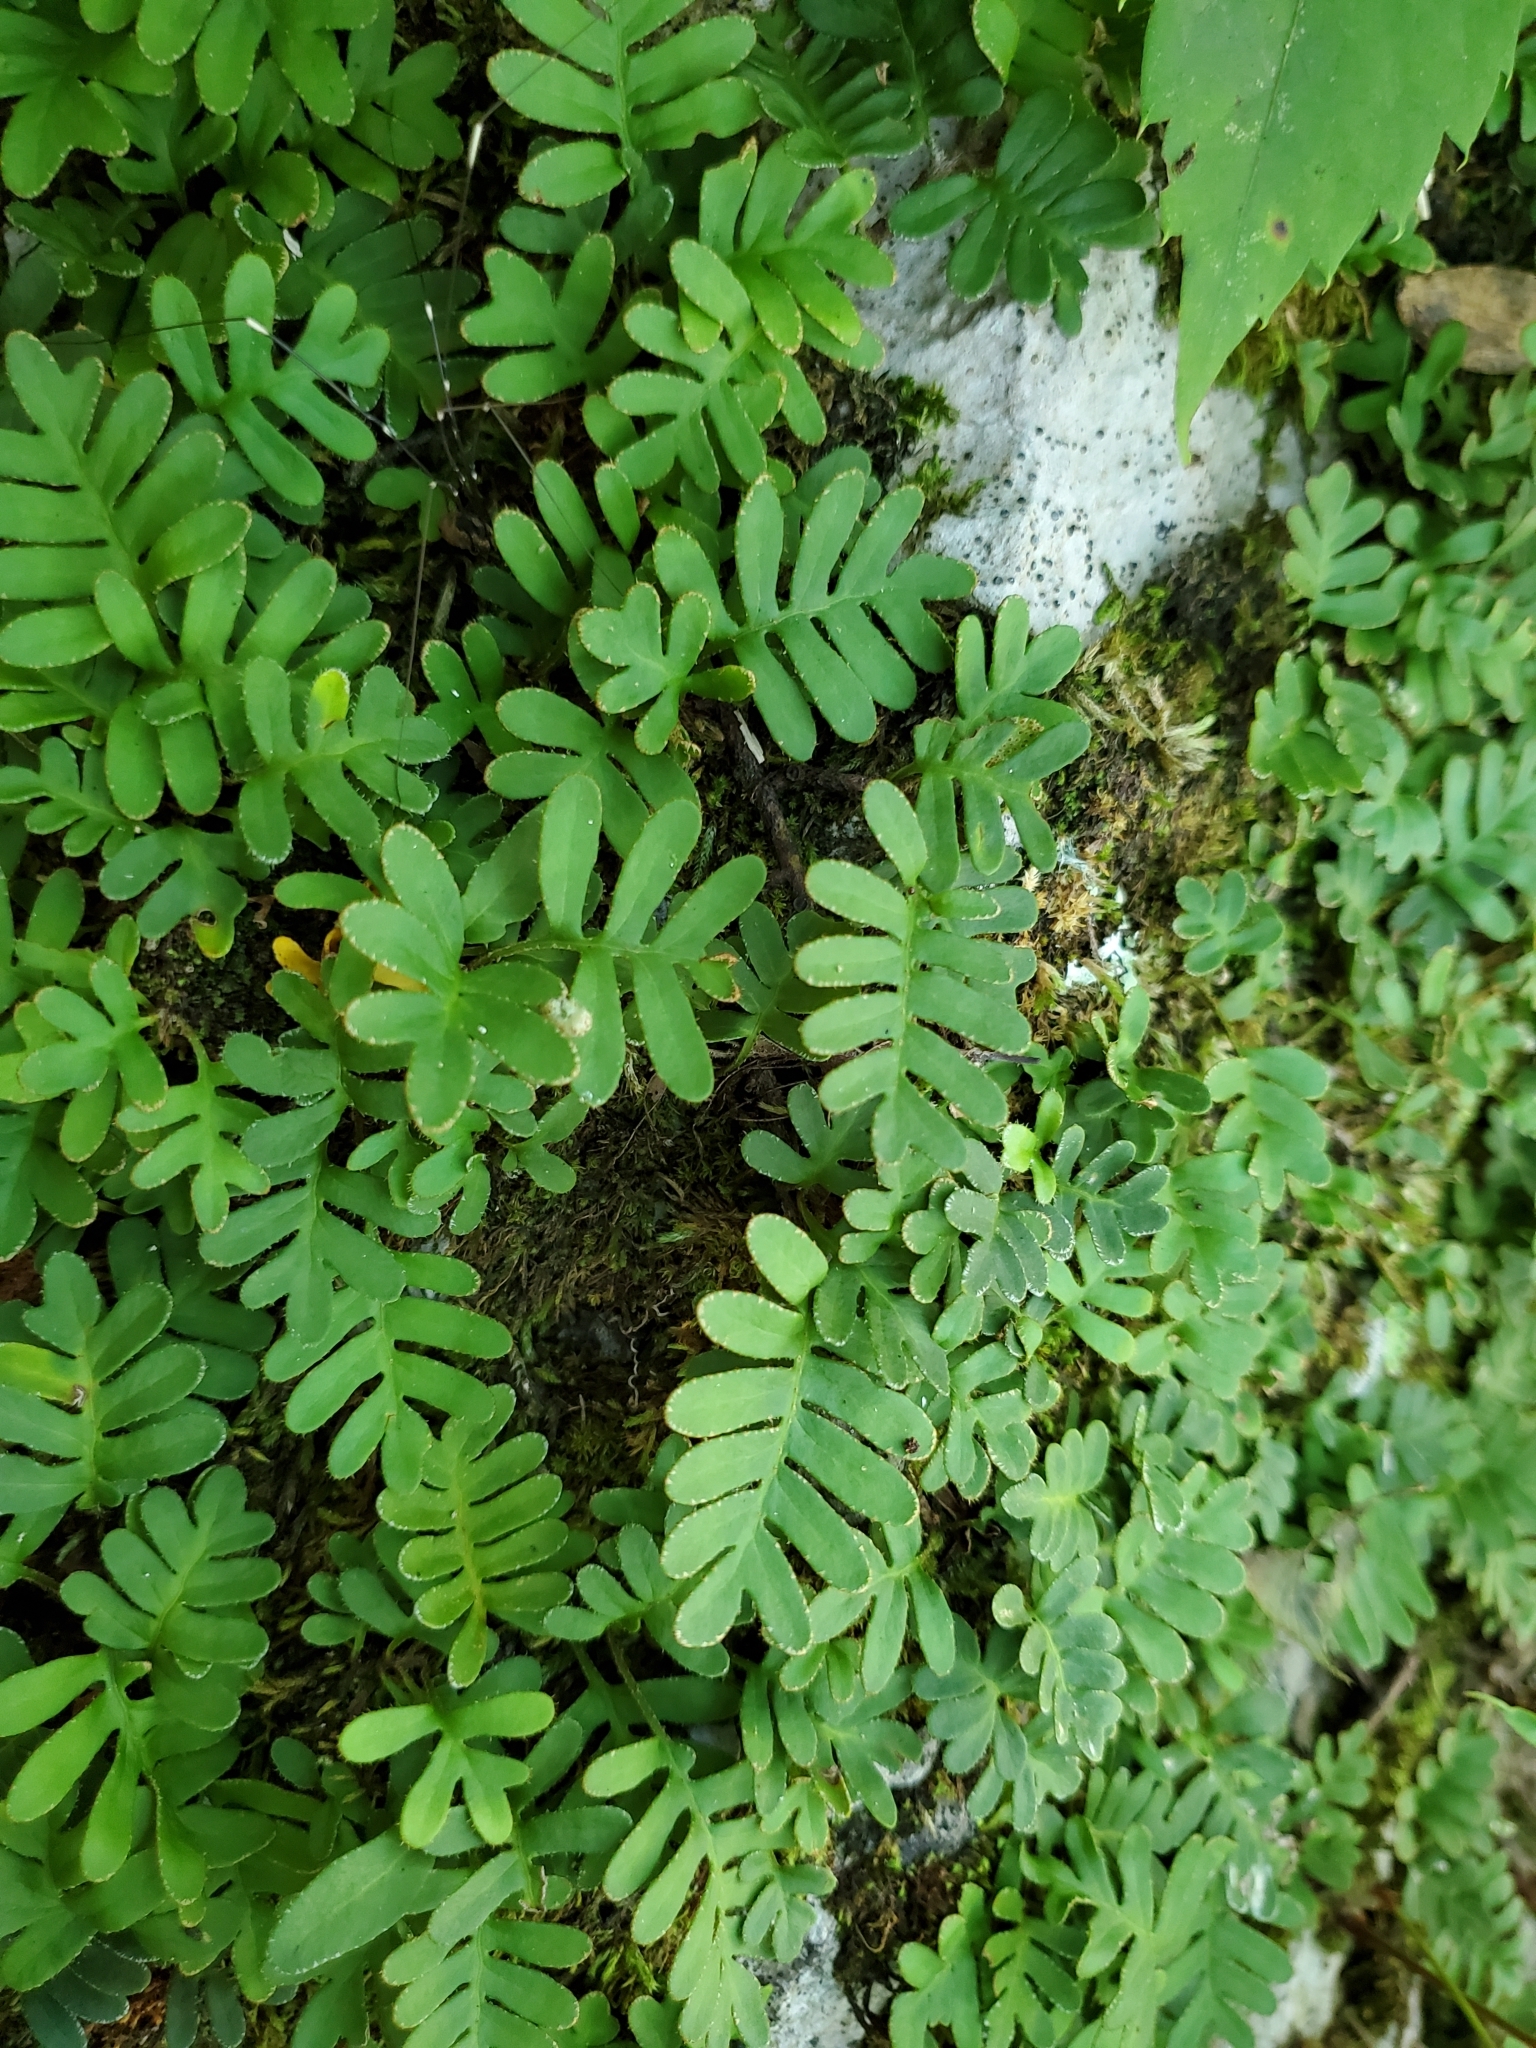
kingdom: Plantae
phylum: Tracheophyta
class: Polypodiopsida
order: Polypodiales
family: Polypodiaceae
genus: Pleopeltis
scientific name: Pleopeltis michauxiana
